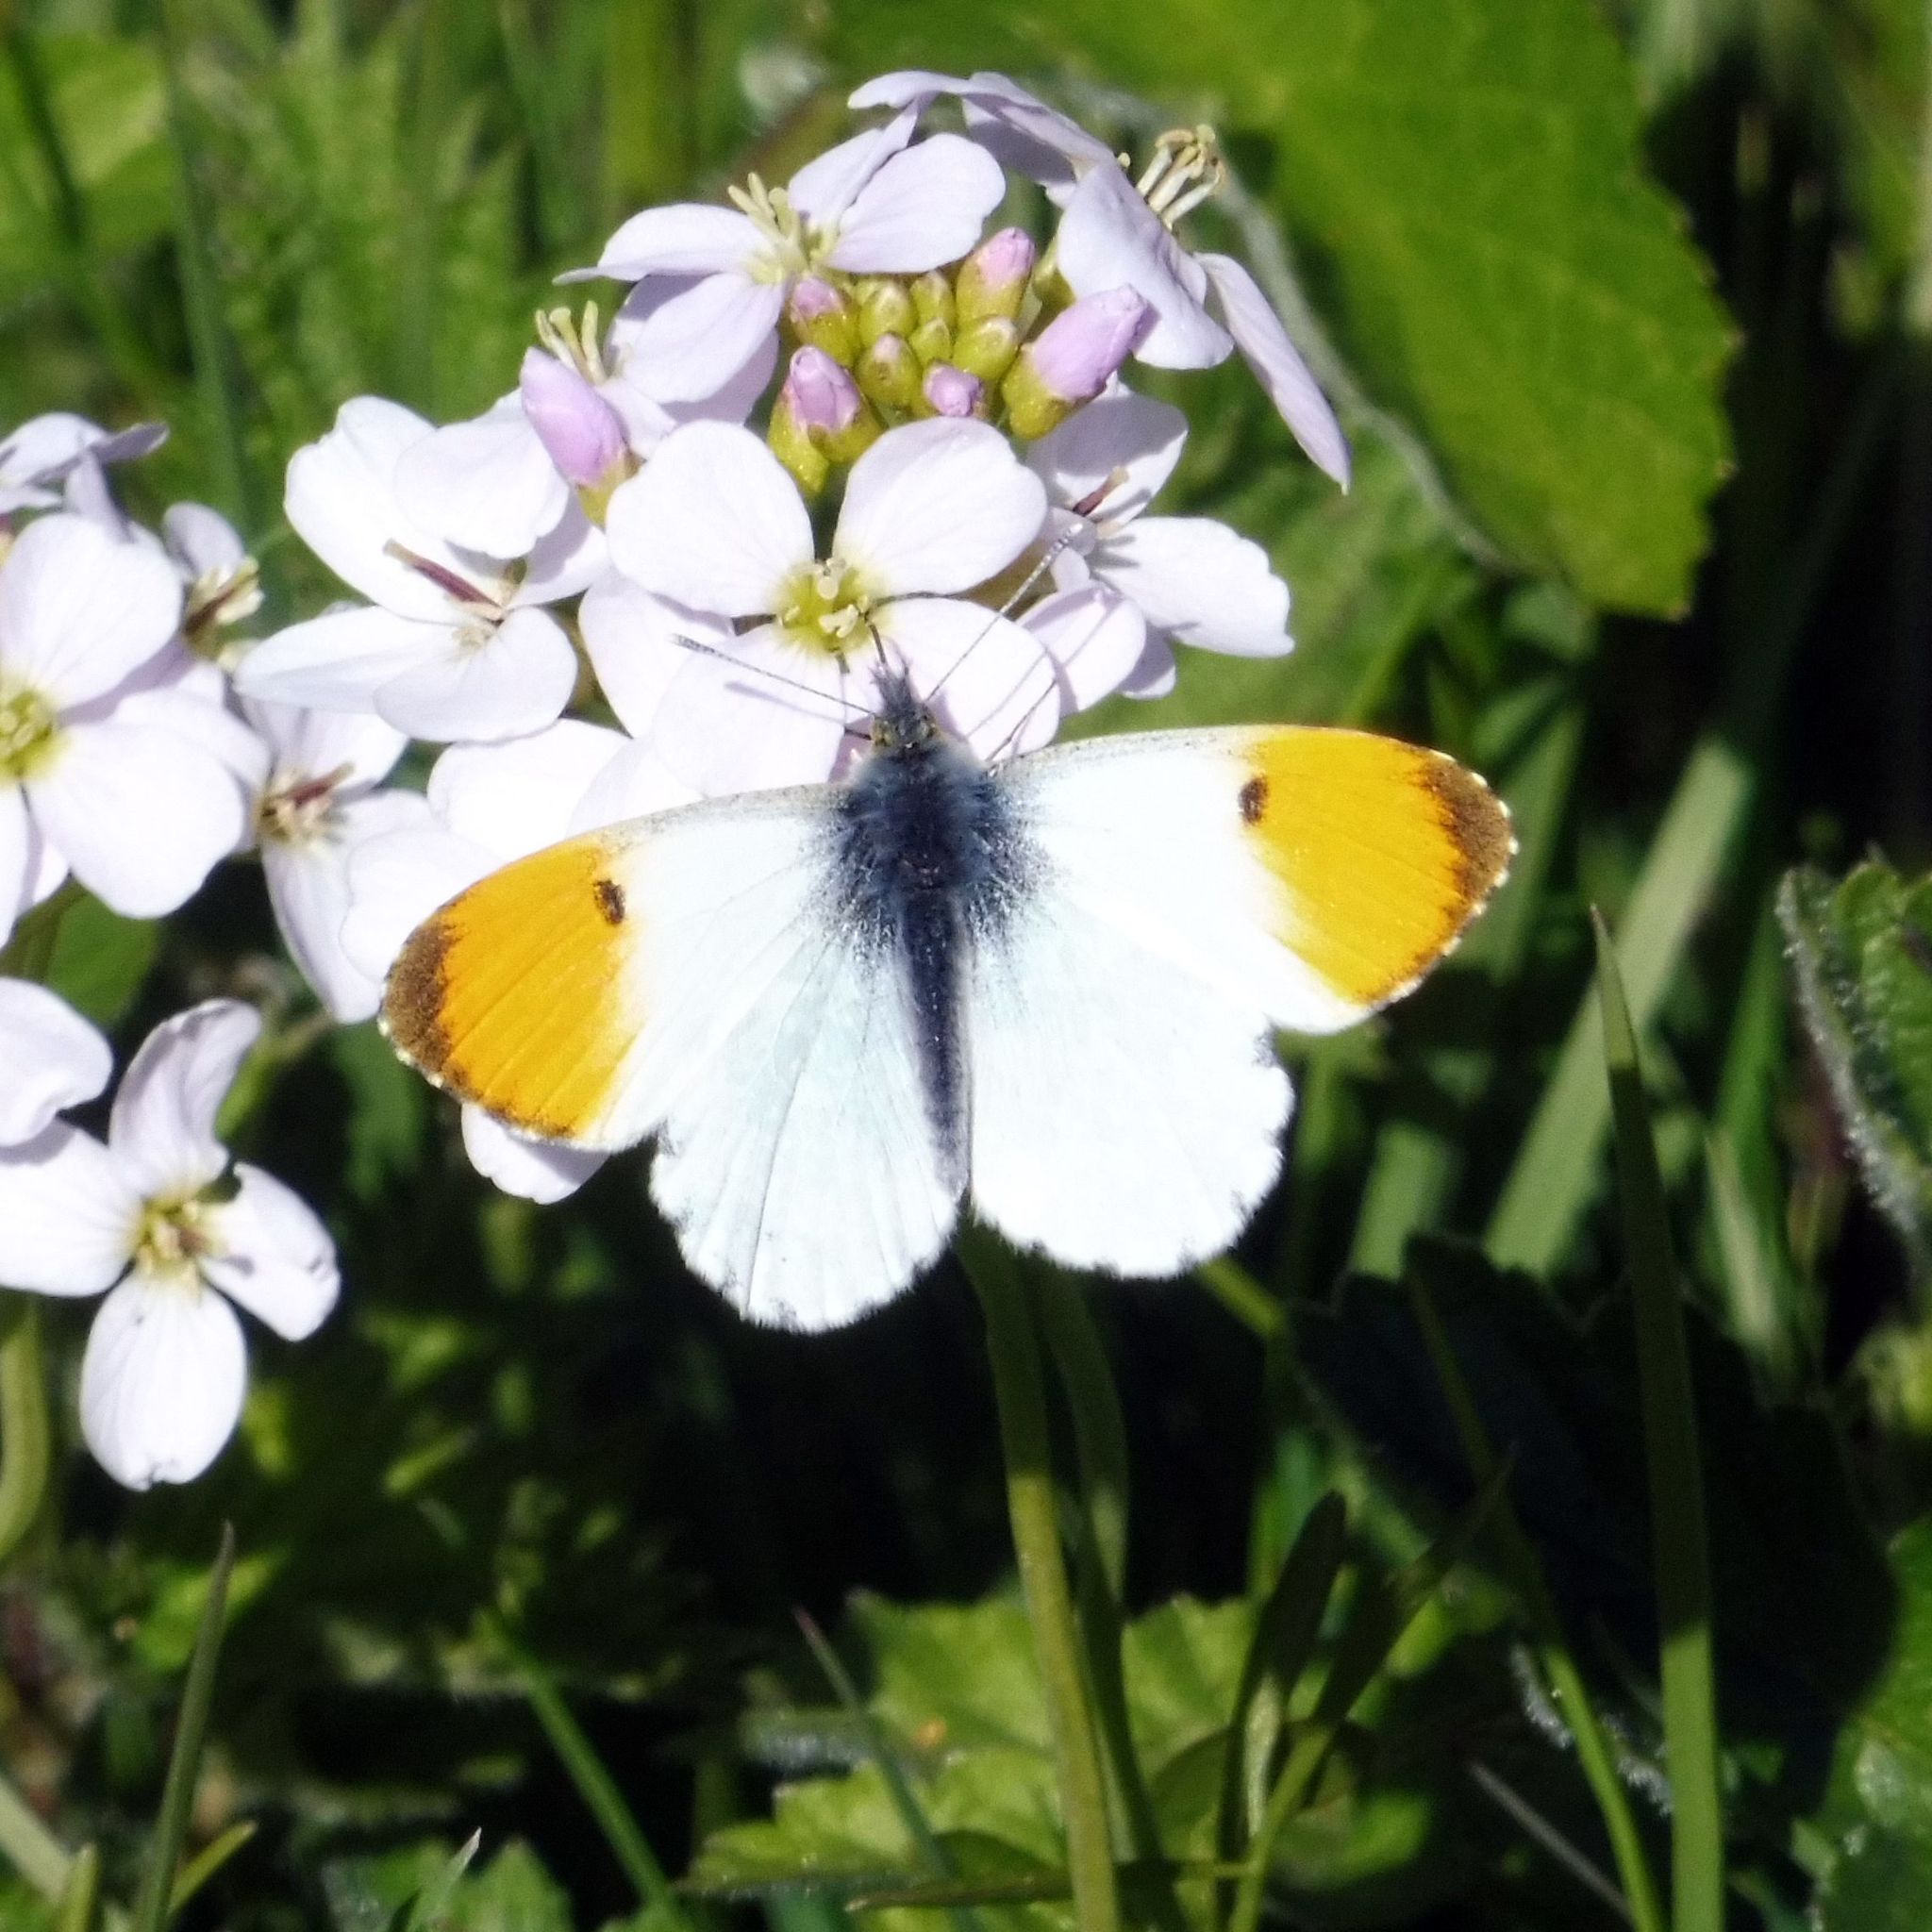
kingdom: Animalia
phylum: Arthropoda
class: Insecta
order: Lepidoptera
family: Pieridae
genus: Anthocharis
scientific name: Anthocharis cardamines
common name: Orange-tip
